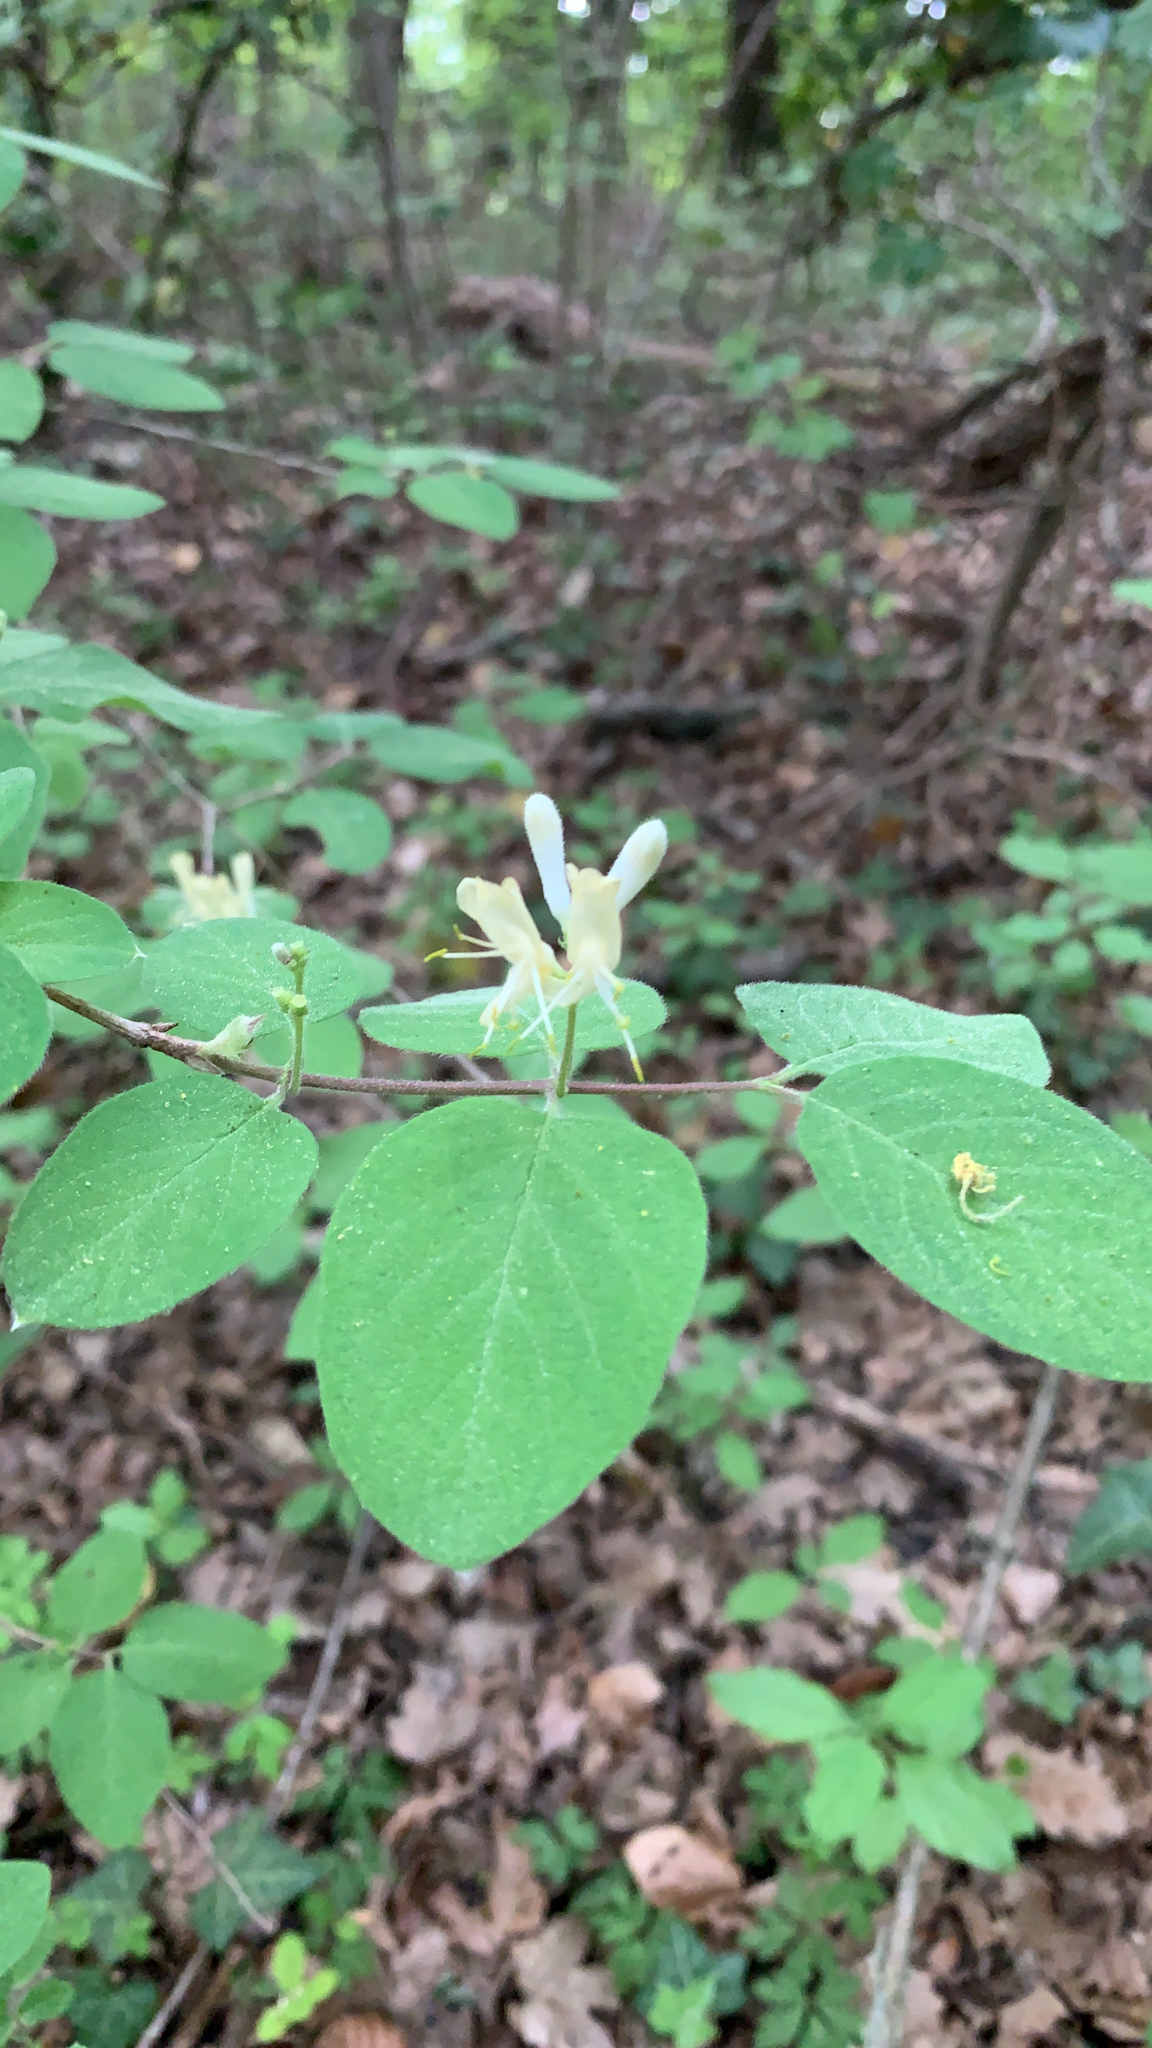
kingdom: Plantae
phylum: Tracheophyta
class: Magnoliopsida
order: Dipsacales
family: Caprifoliaceae
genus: Lonicera
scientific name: Lonicera xylosteum
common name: Fly honeysuckle
